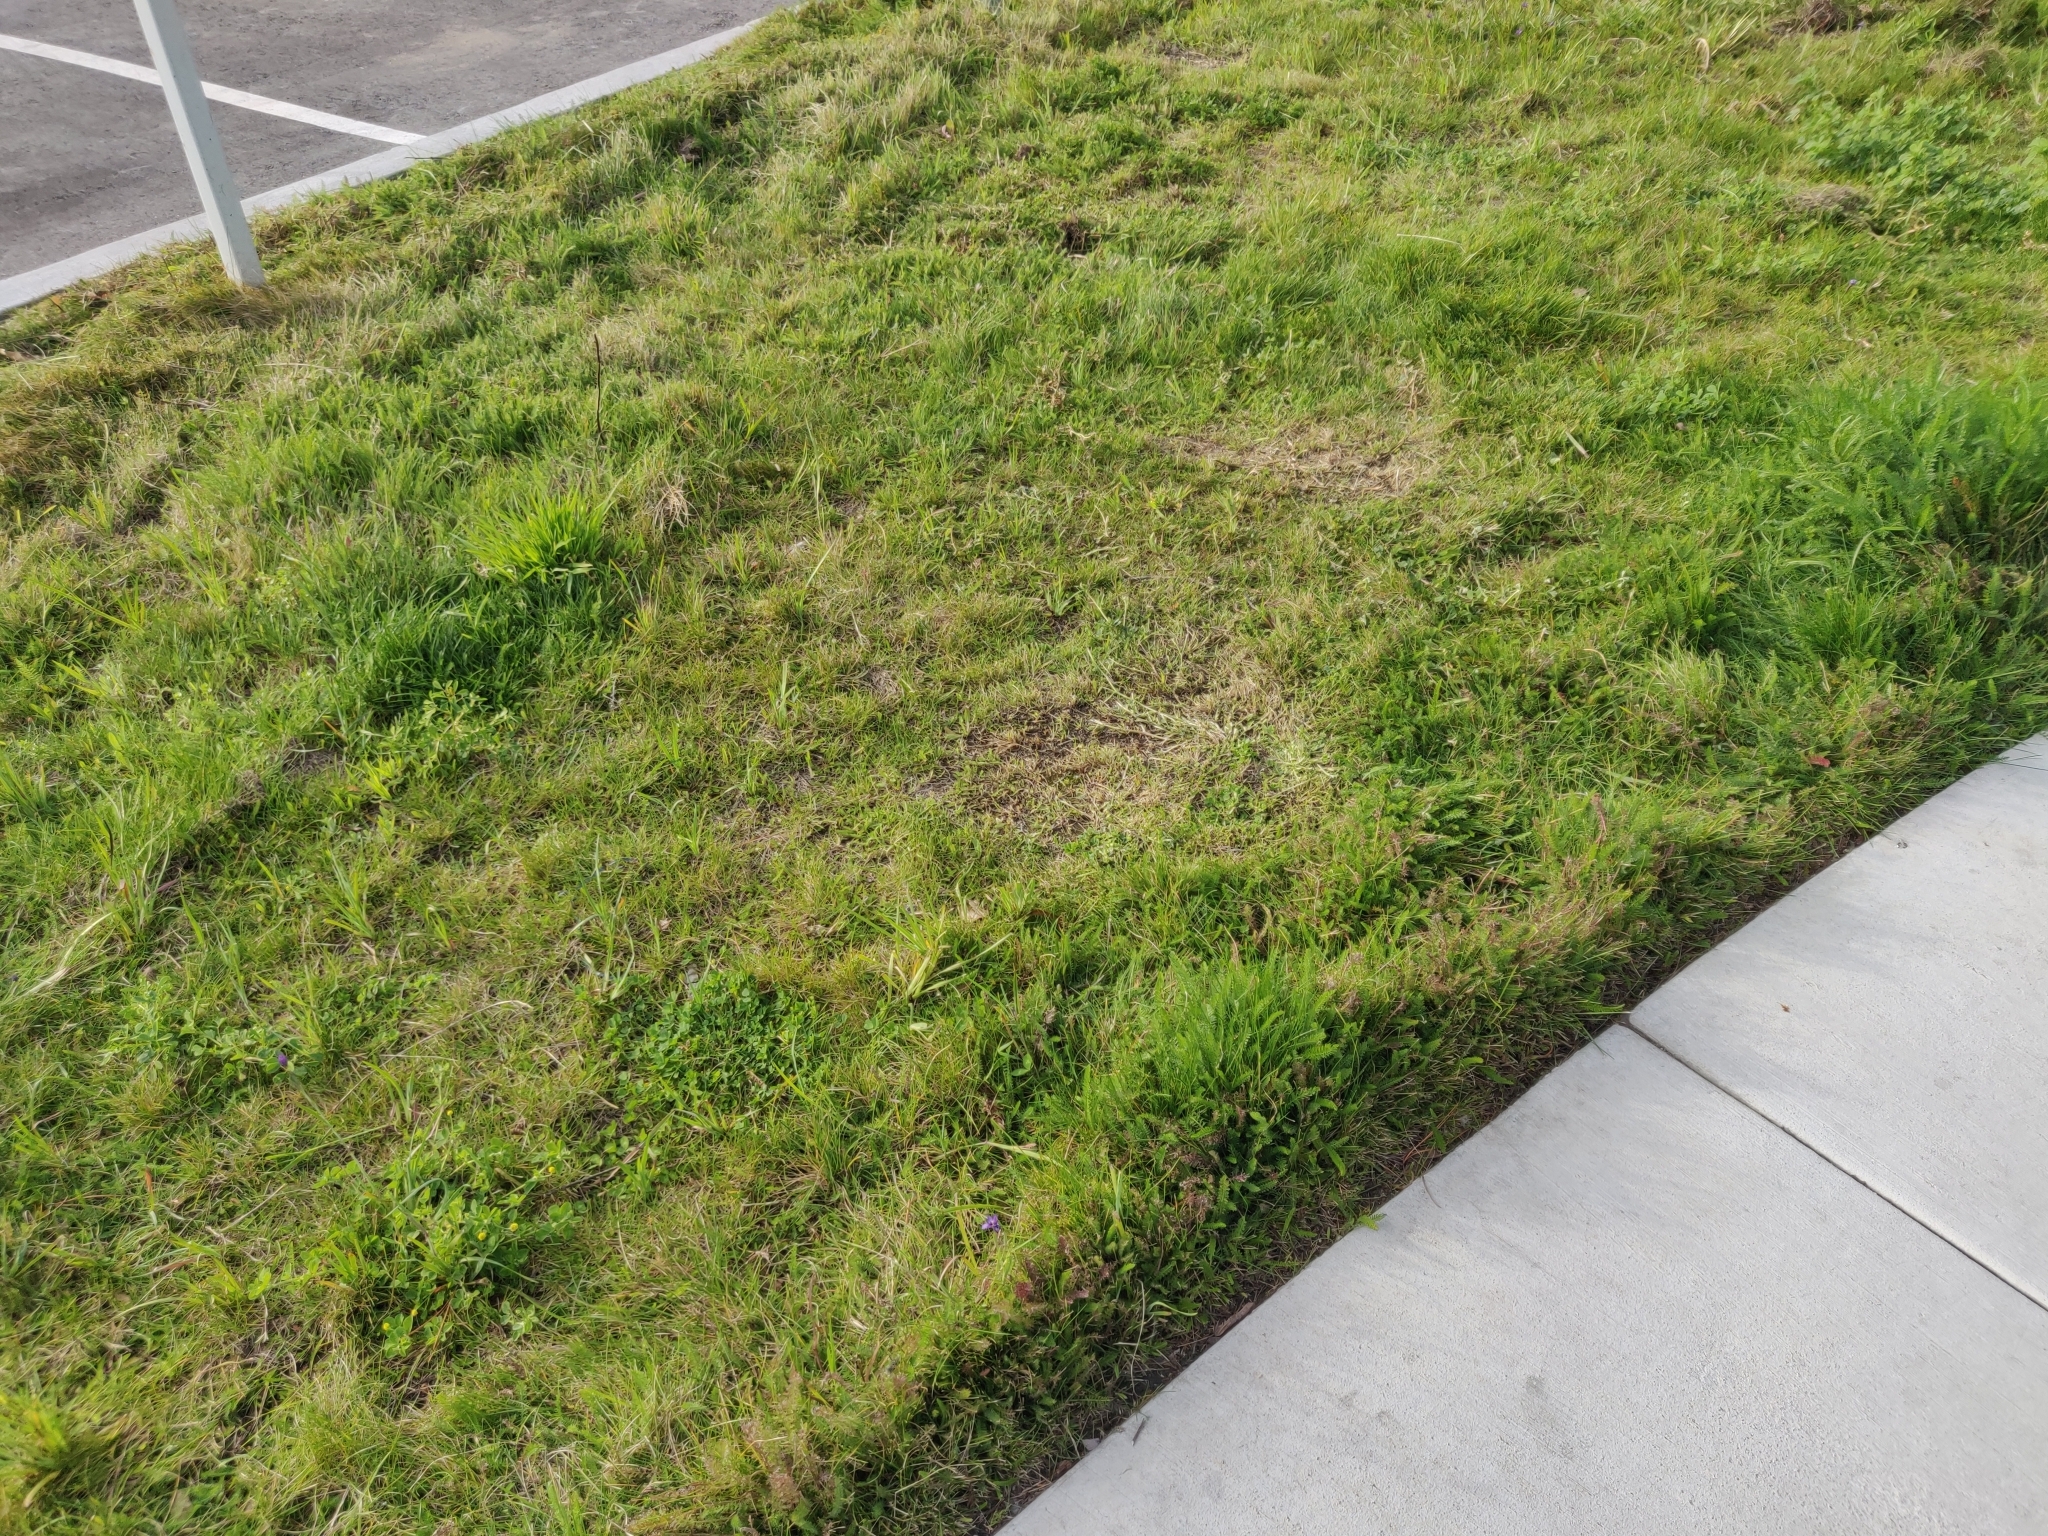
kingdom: Plantae
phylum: Tracheophyta
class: Liliopsida
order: Asparagales
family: Iridaceae
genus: Sisyrinchium
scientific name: Sisyrinchium bellum
